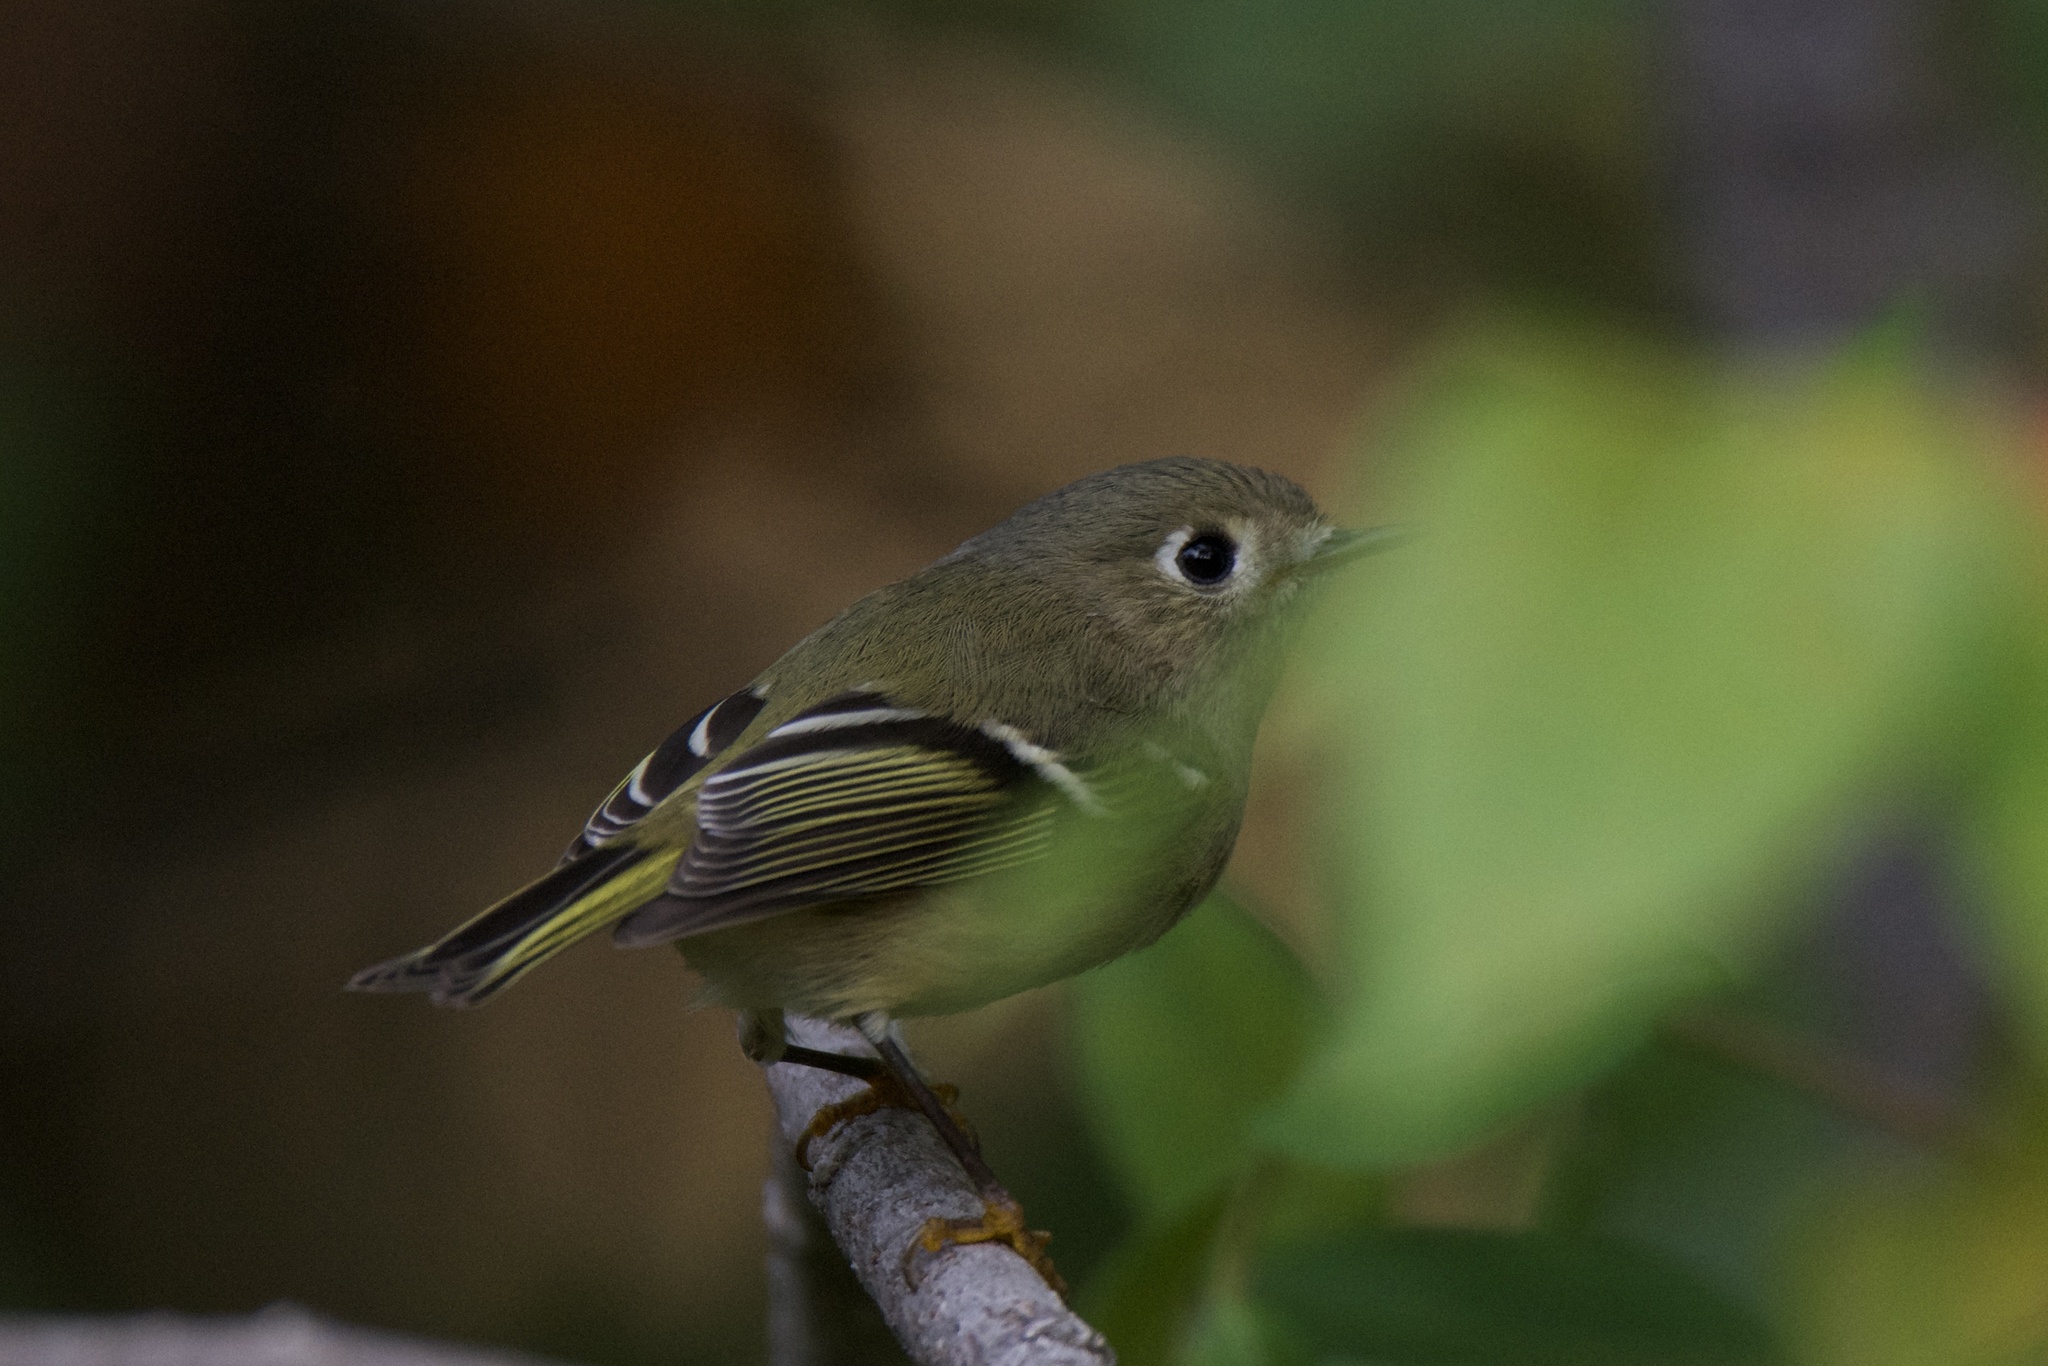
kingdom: Animalia
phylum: Chordata
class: Aves
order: Passeriformes
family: Regulidae
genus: Regulus
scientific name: Regulus calendula
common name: Ruby-crowned kinglet
